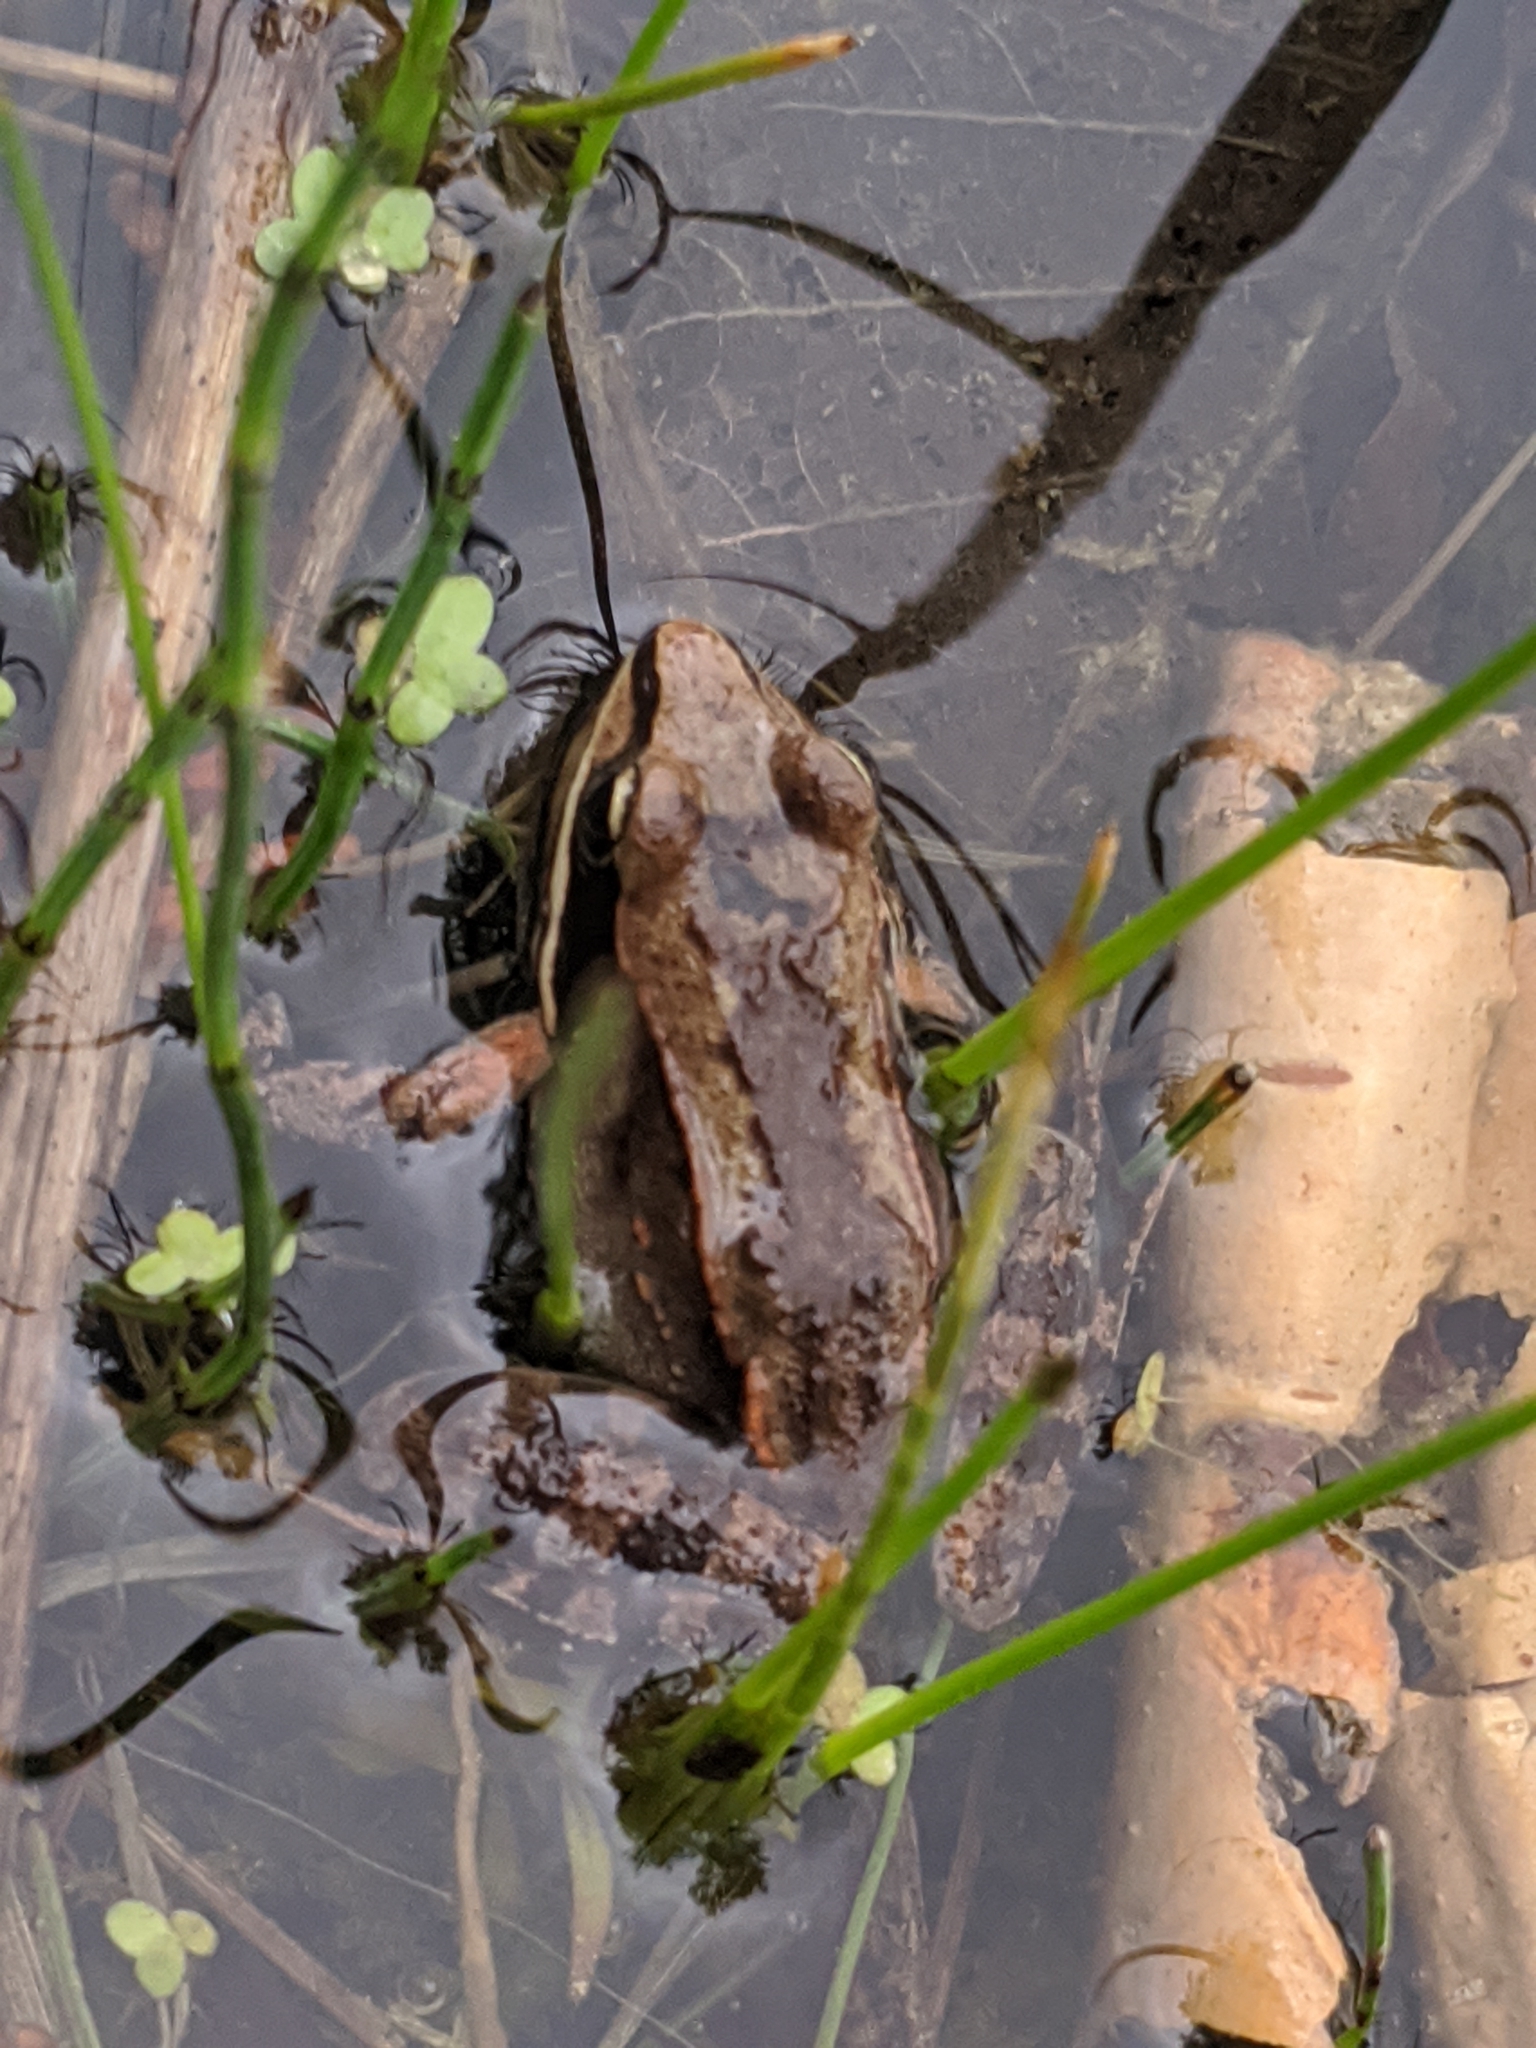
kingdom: Animalia
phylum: Chordata
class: Amphibia
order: Anura
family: Ranidae
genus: Lithobates
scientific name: Lithobates sylvaticus
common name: Wood frog
